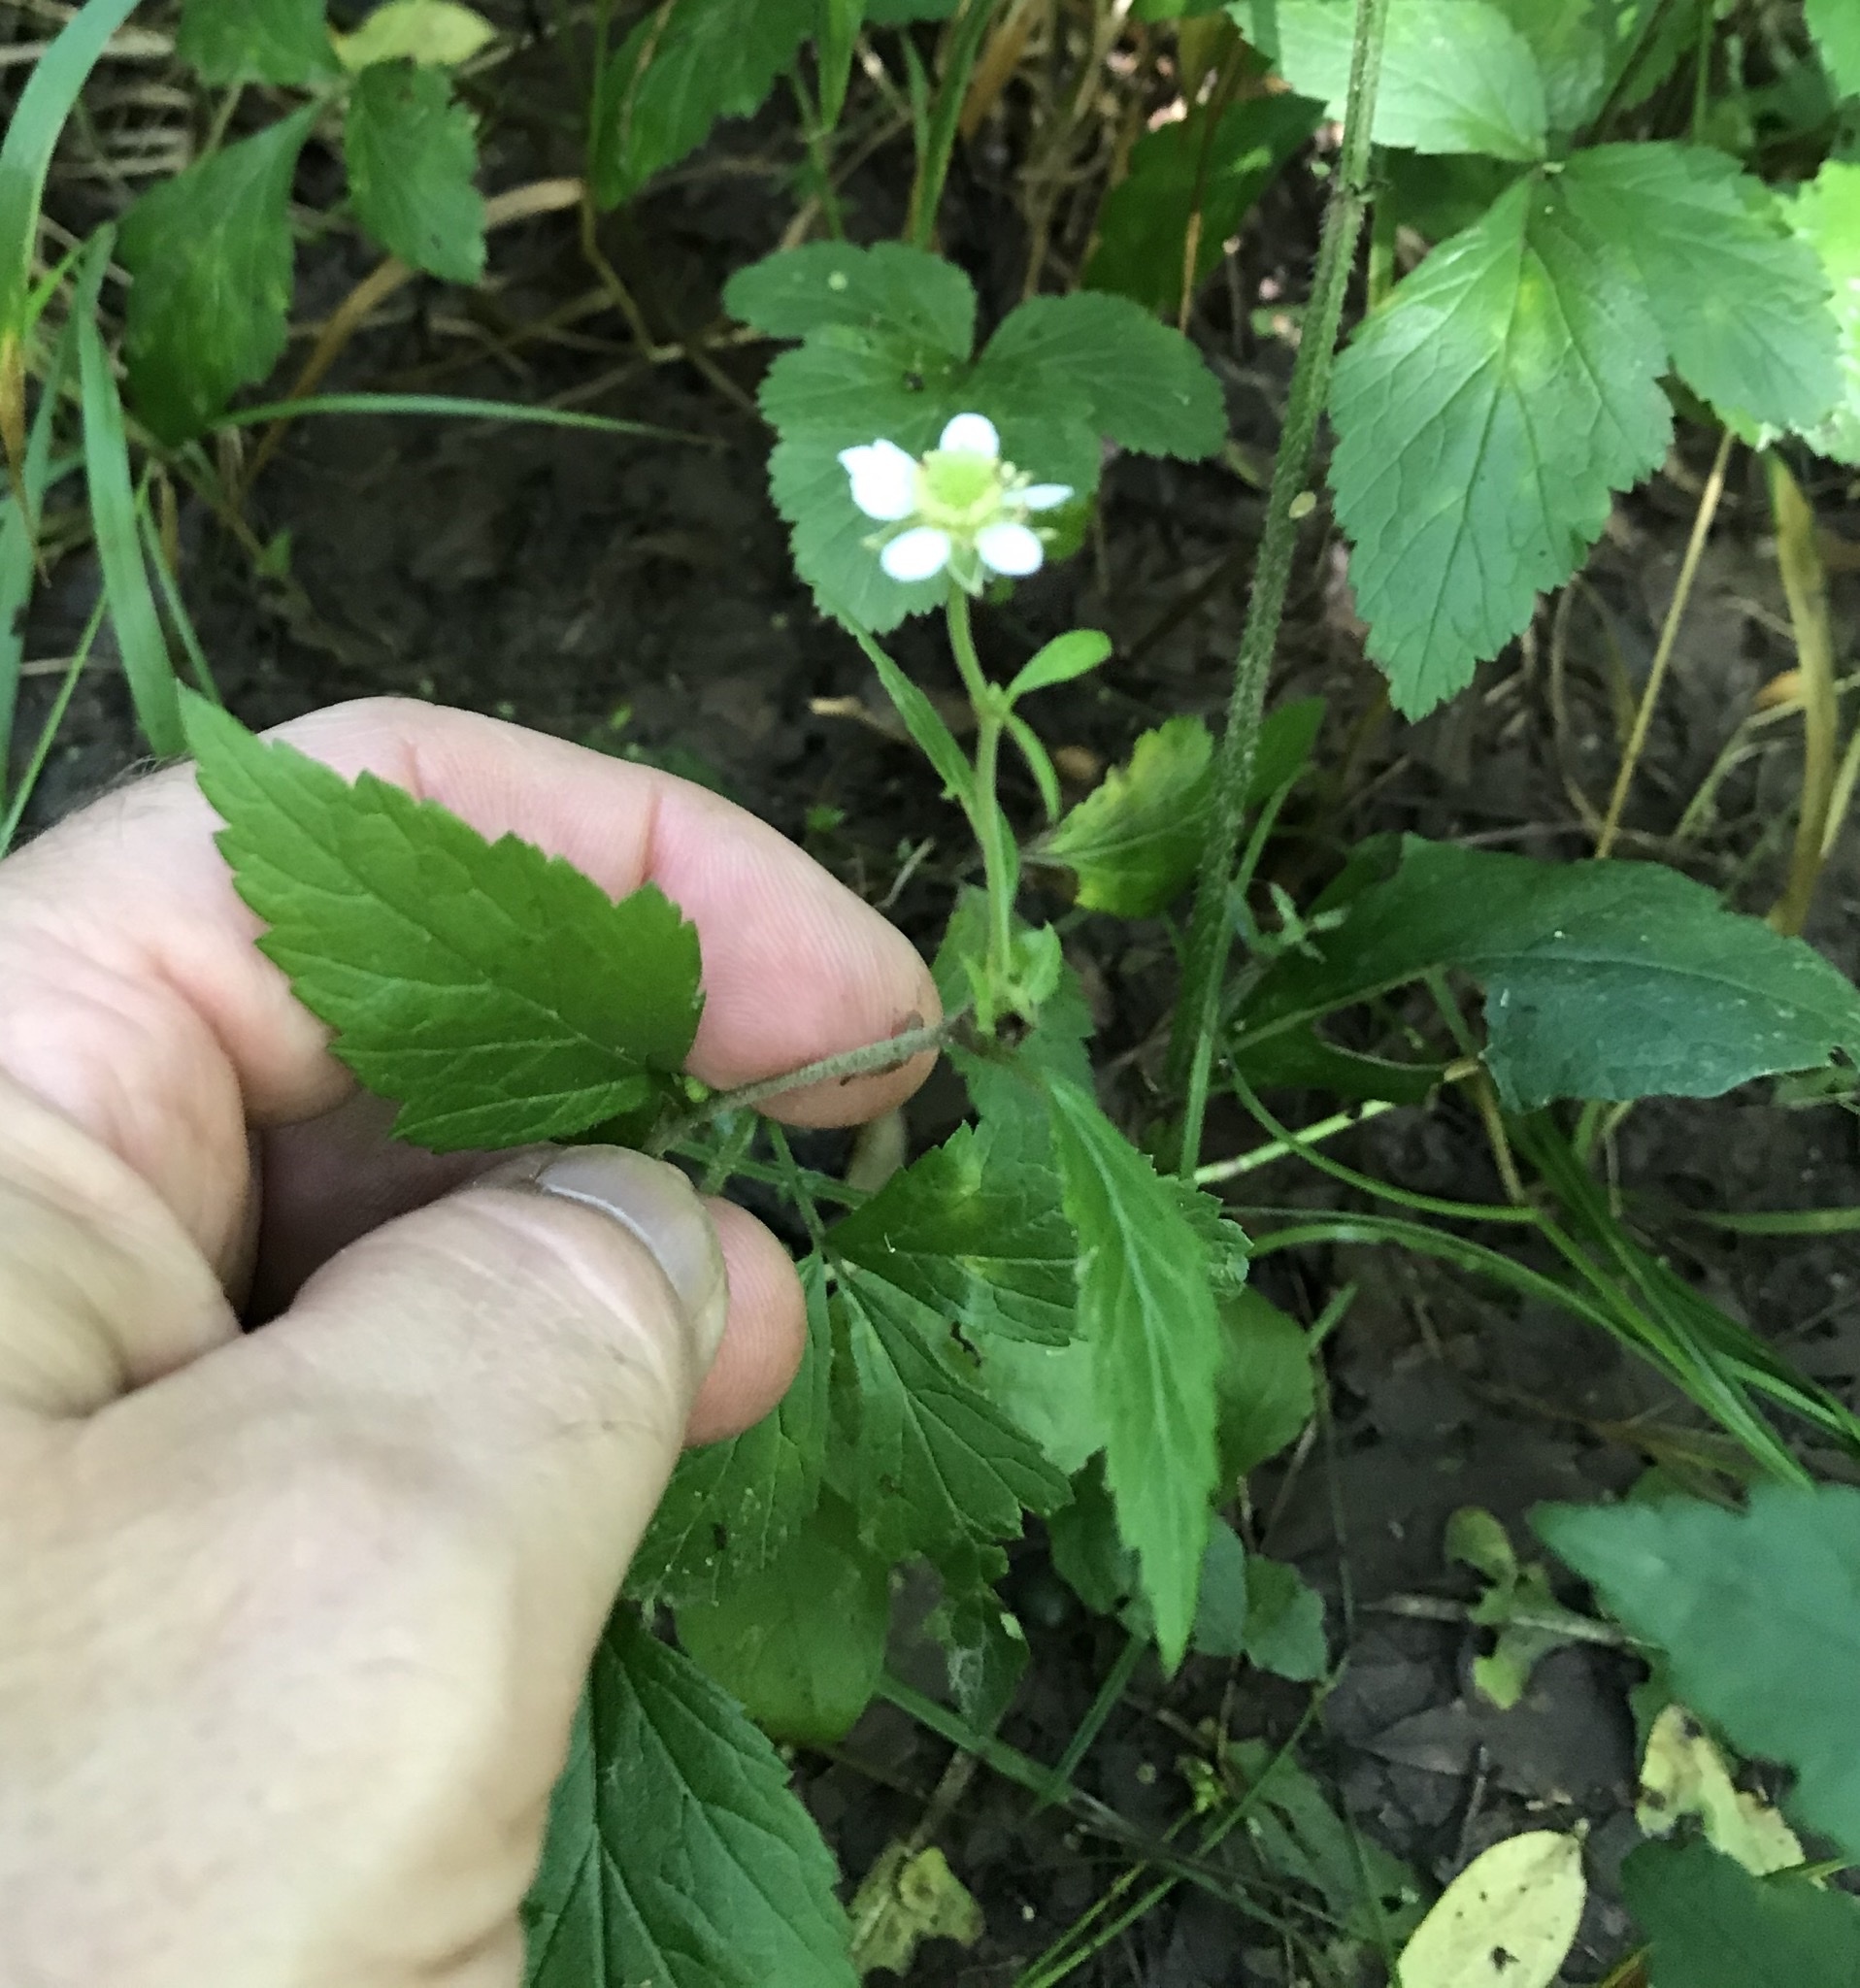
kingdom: Plantae
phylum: Tracheophyta
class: Magnoliopsida
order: Rosales
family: Rosaceae
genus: Geum
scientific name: Geum canadense
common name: White avens
